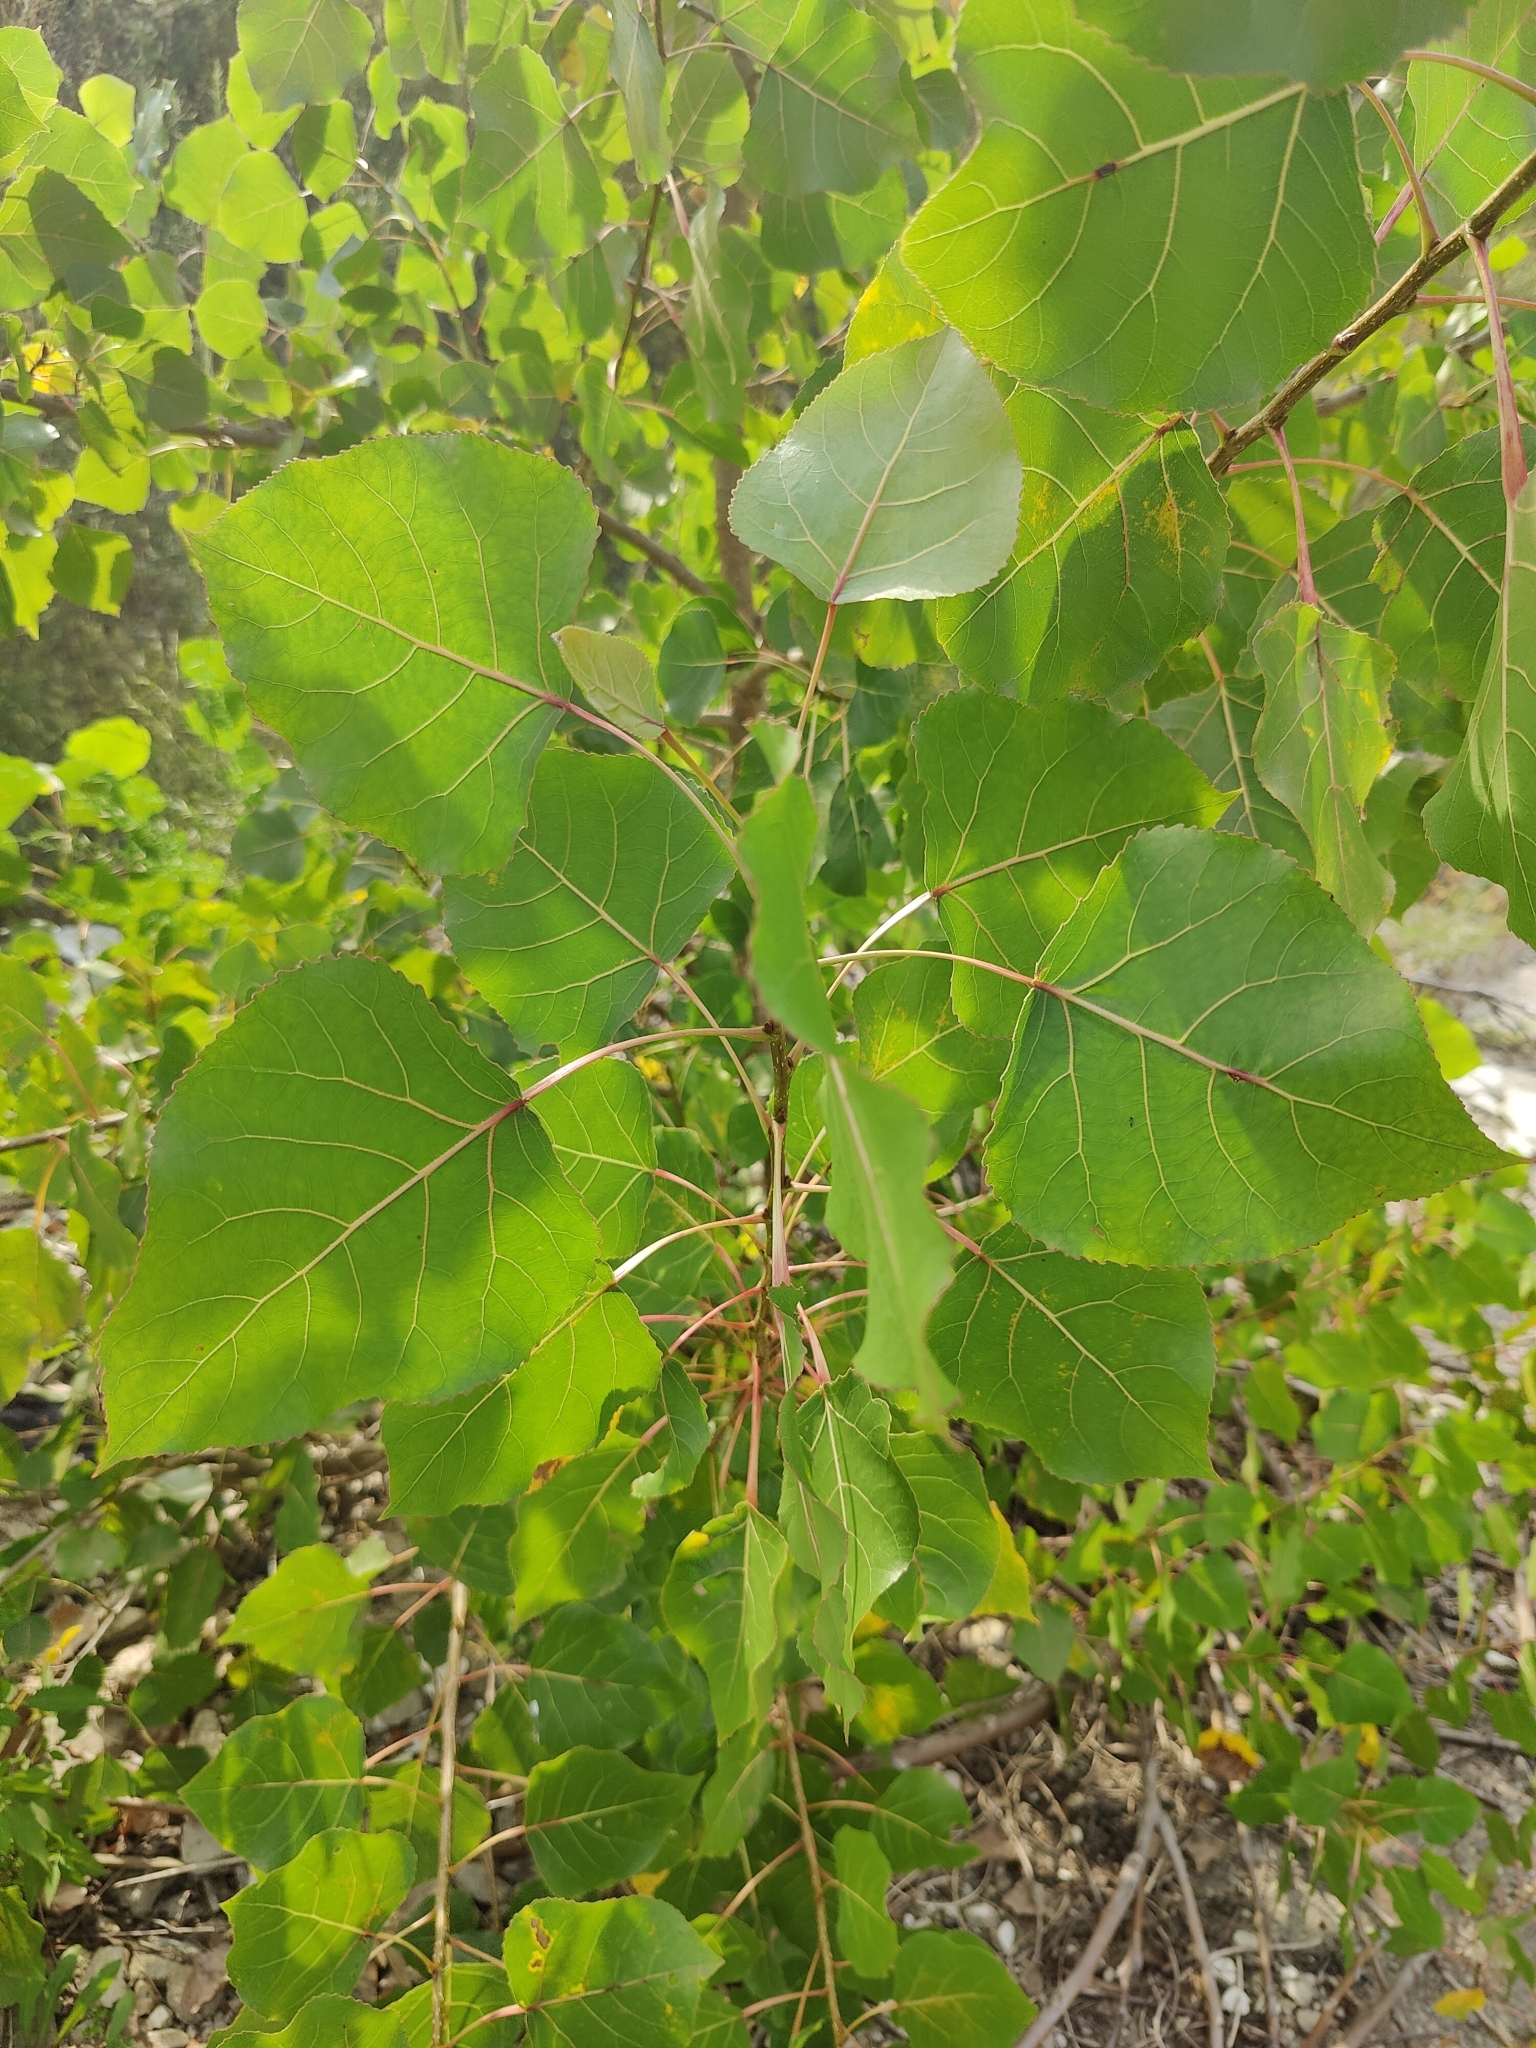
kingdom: Plantae
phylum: Tracheophyta
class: Magnoliopsida
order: Malpighiales
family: Salicaceae
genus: Populus
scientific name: Populus deltoides
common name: Eastern cottonwood
